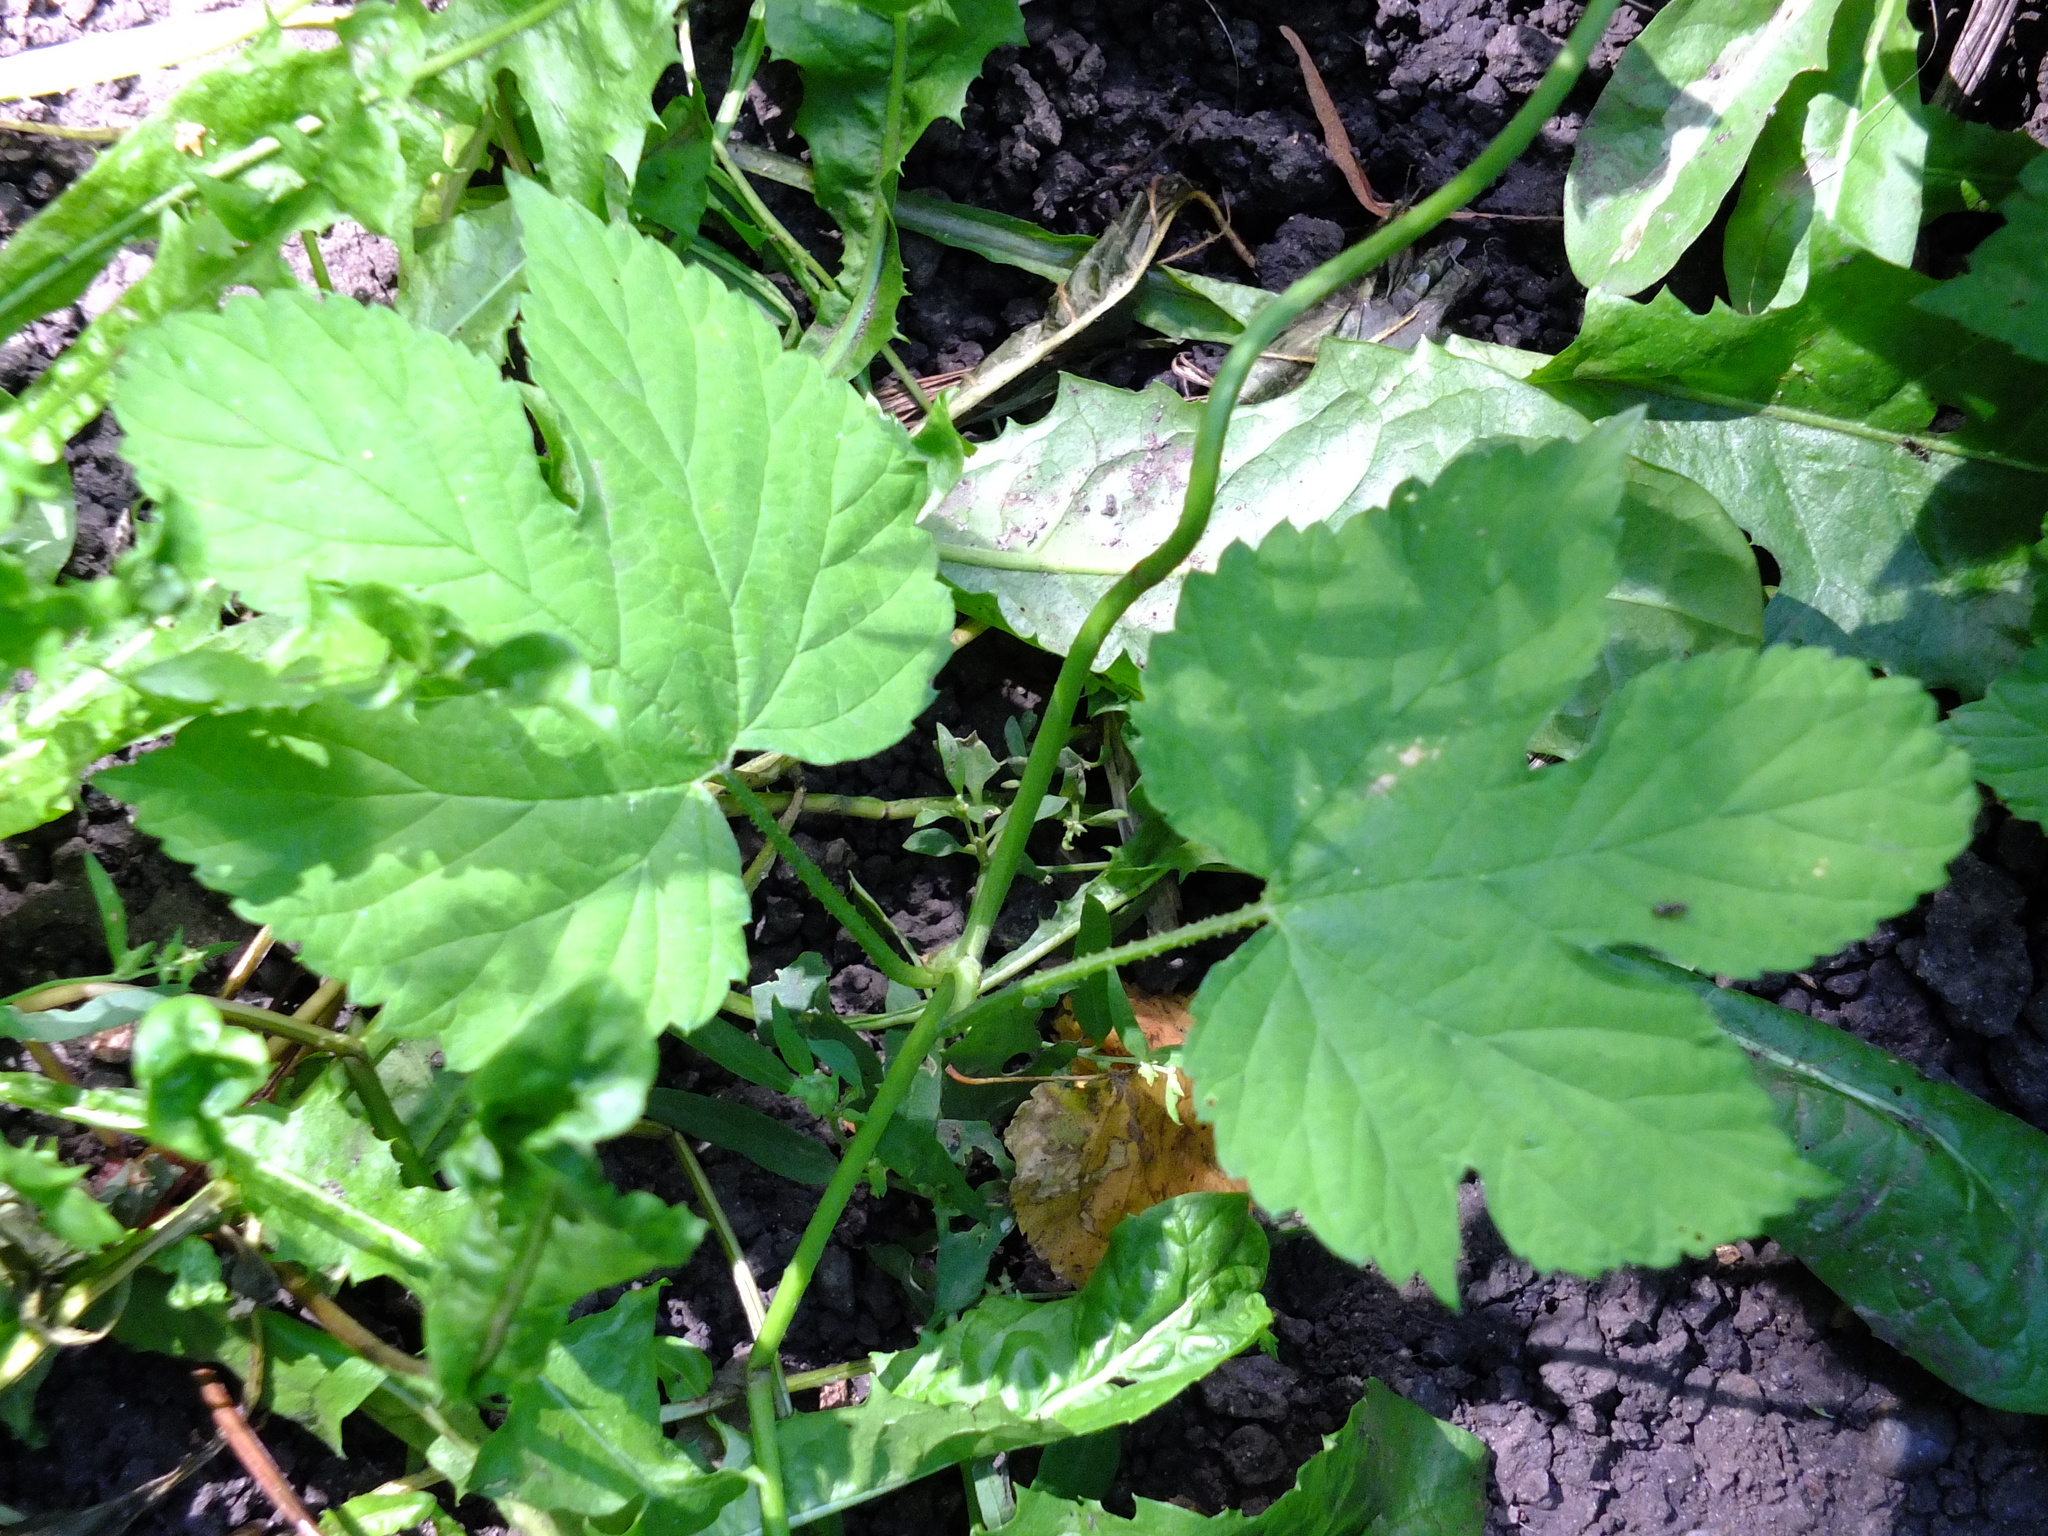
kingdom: Plantae
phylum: Tracheophyta
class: Magnoliopsida
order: Rosales
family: Cannabaceae
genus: Humulus
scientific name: Humulus lupulus
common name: Hop
